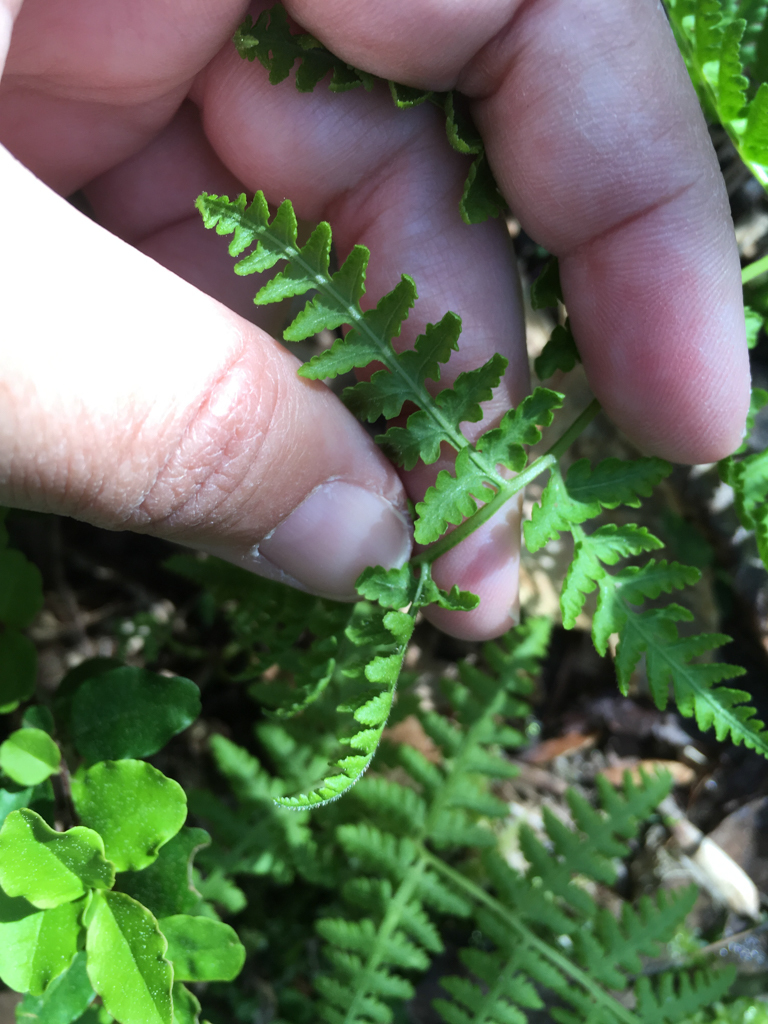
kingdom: Plantae
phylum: Tracheophyta
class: Polypodiopsida
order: Polypodiales
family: Thelypteridaceae
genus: Macrothelypteris
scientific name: Macrothelypteris torresiana
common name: Swordfern
